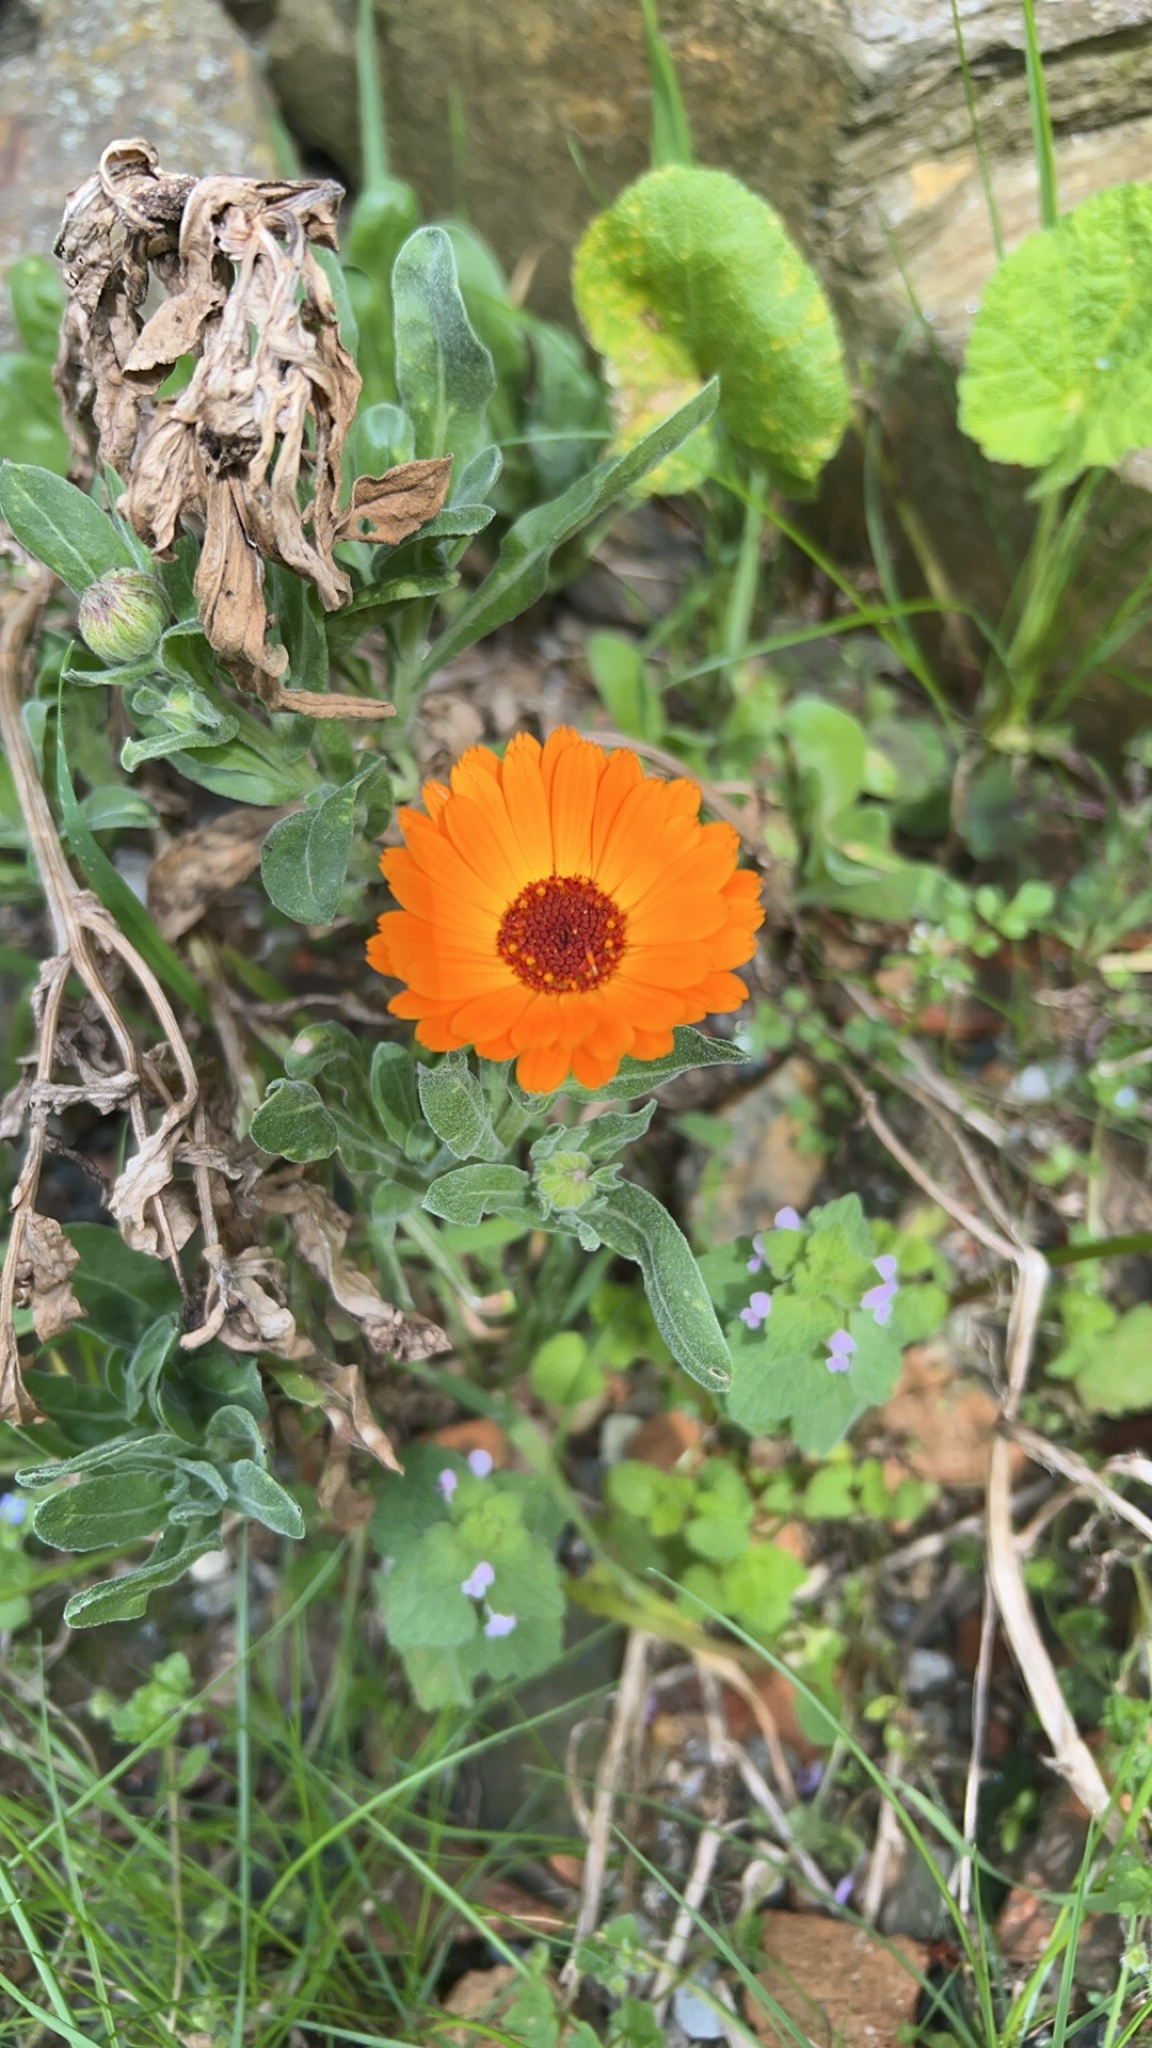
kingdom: Plantae
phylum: Tracheophyta
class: Magnoliopsida
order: Asterales
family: Asteraceae
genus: Calendula
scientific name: Calendula officinalis
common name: Pot marigold
